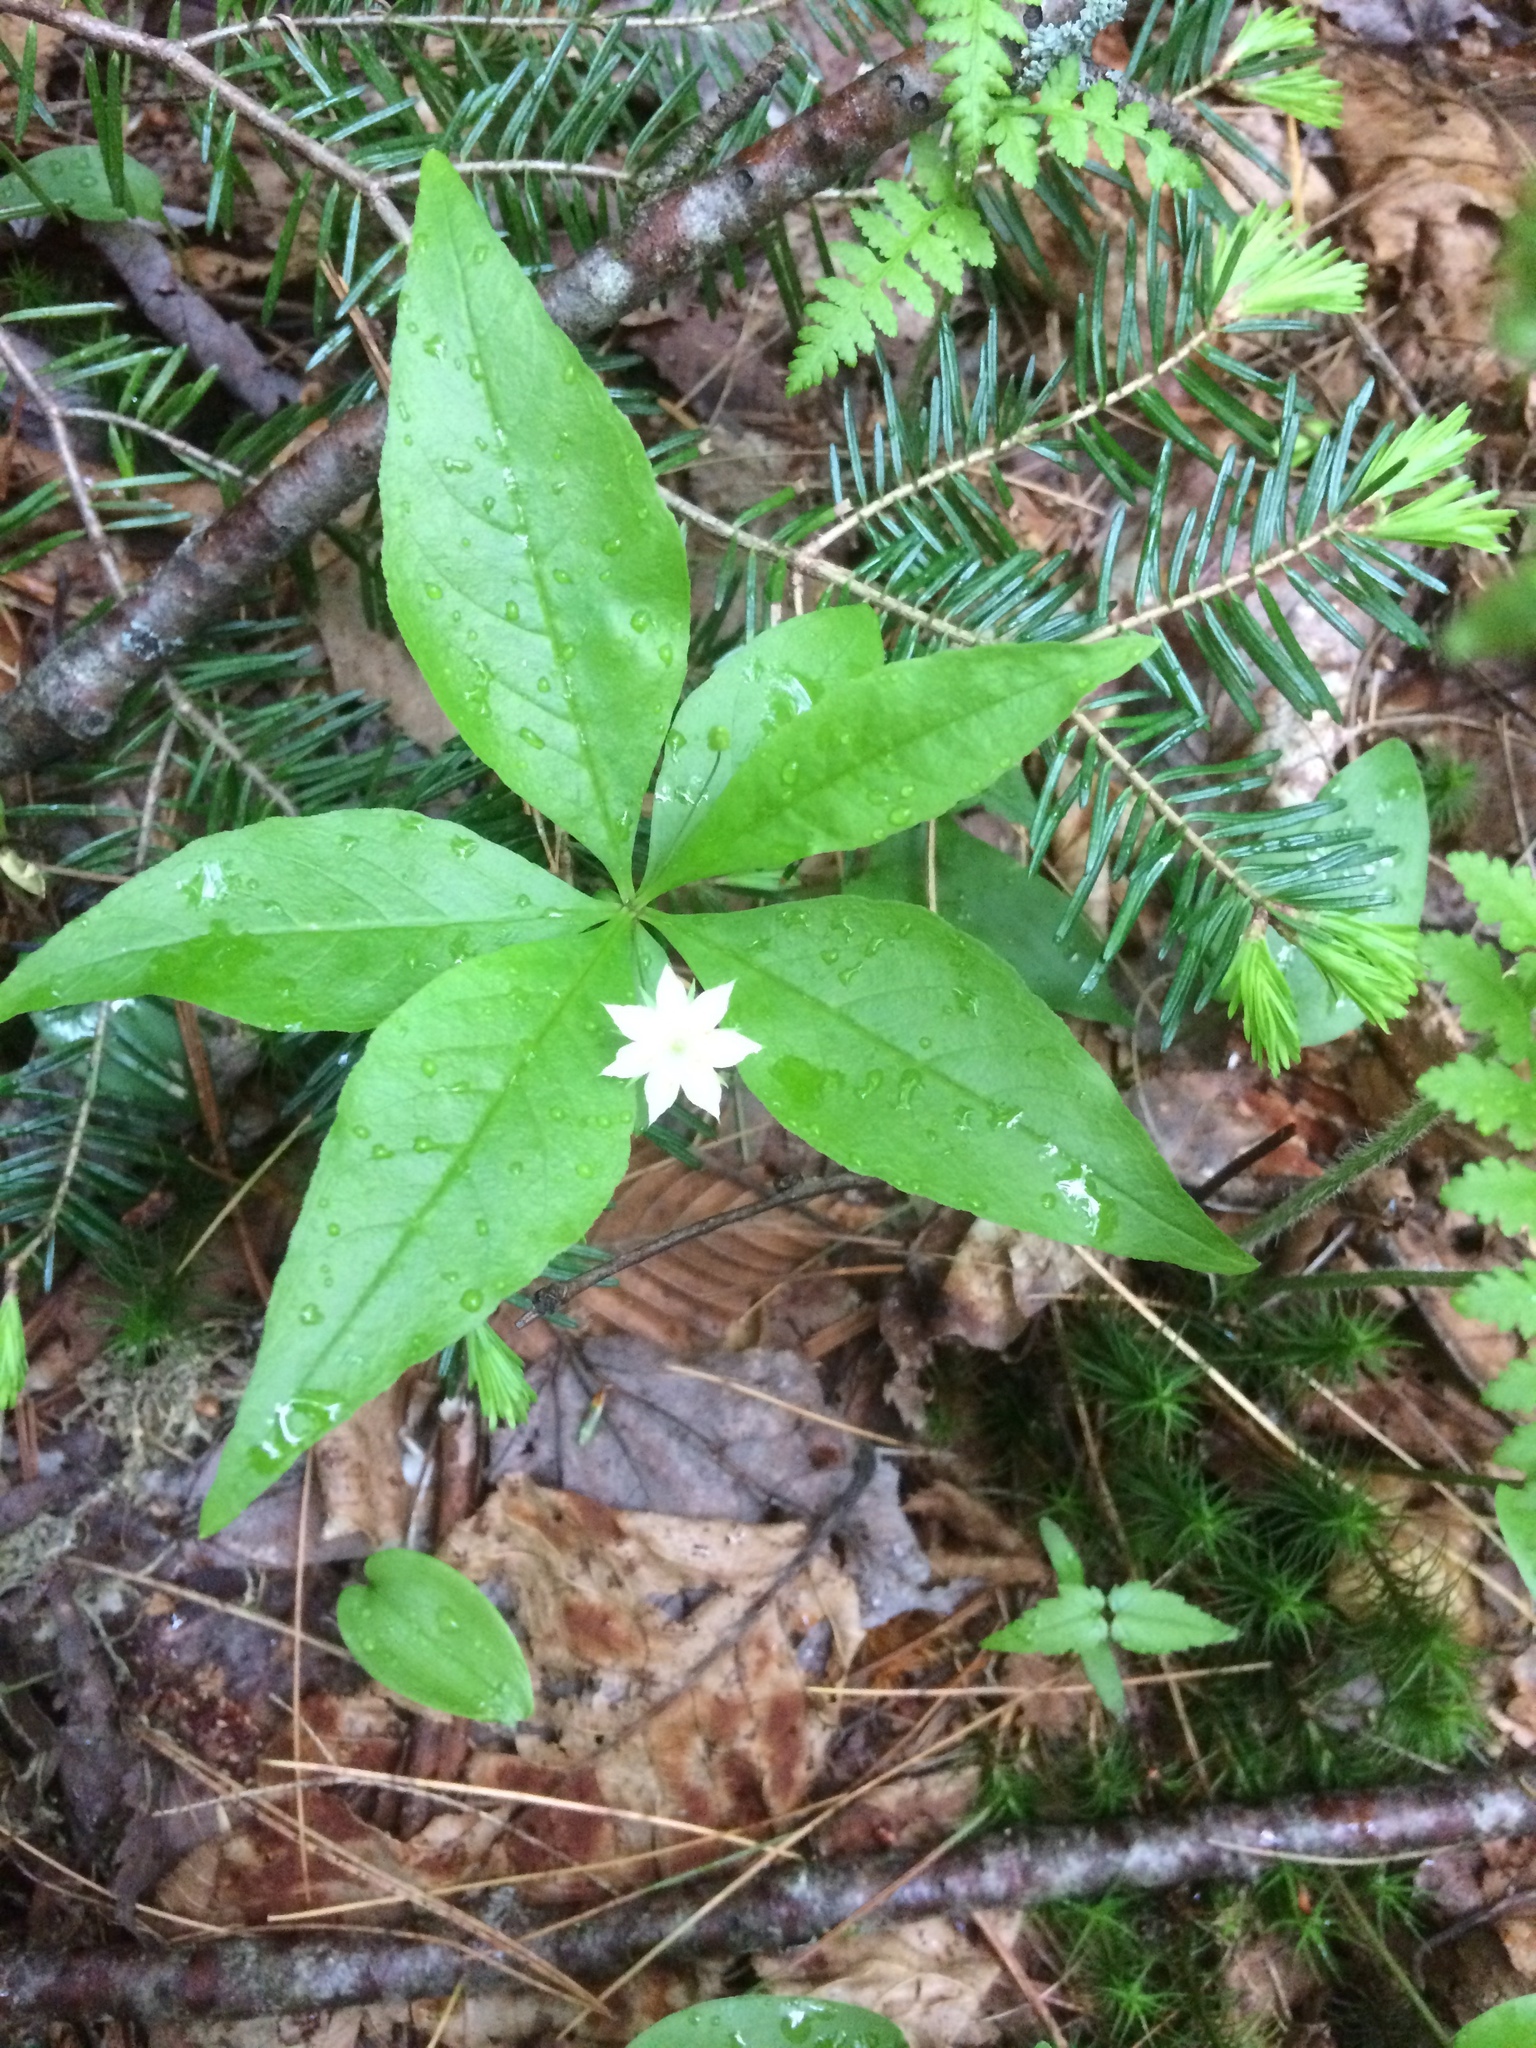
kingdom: Plantae
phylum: Tracheophyta
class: Magnoliopsida
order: Ericales
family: Primulaceae
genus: Lysimachia
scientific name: Lysimachia borealis
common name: American starflower
